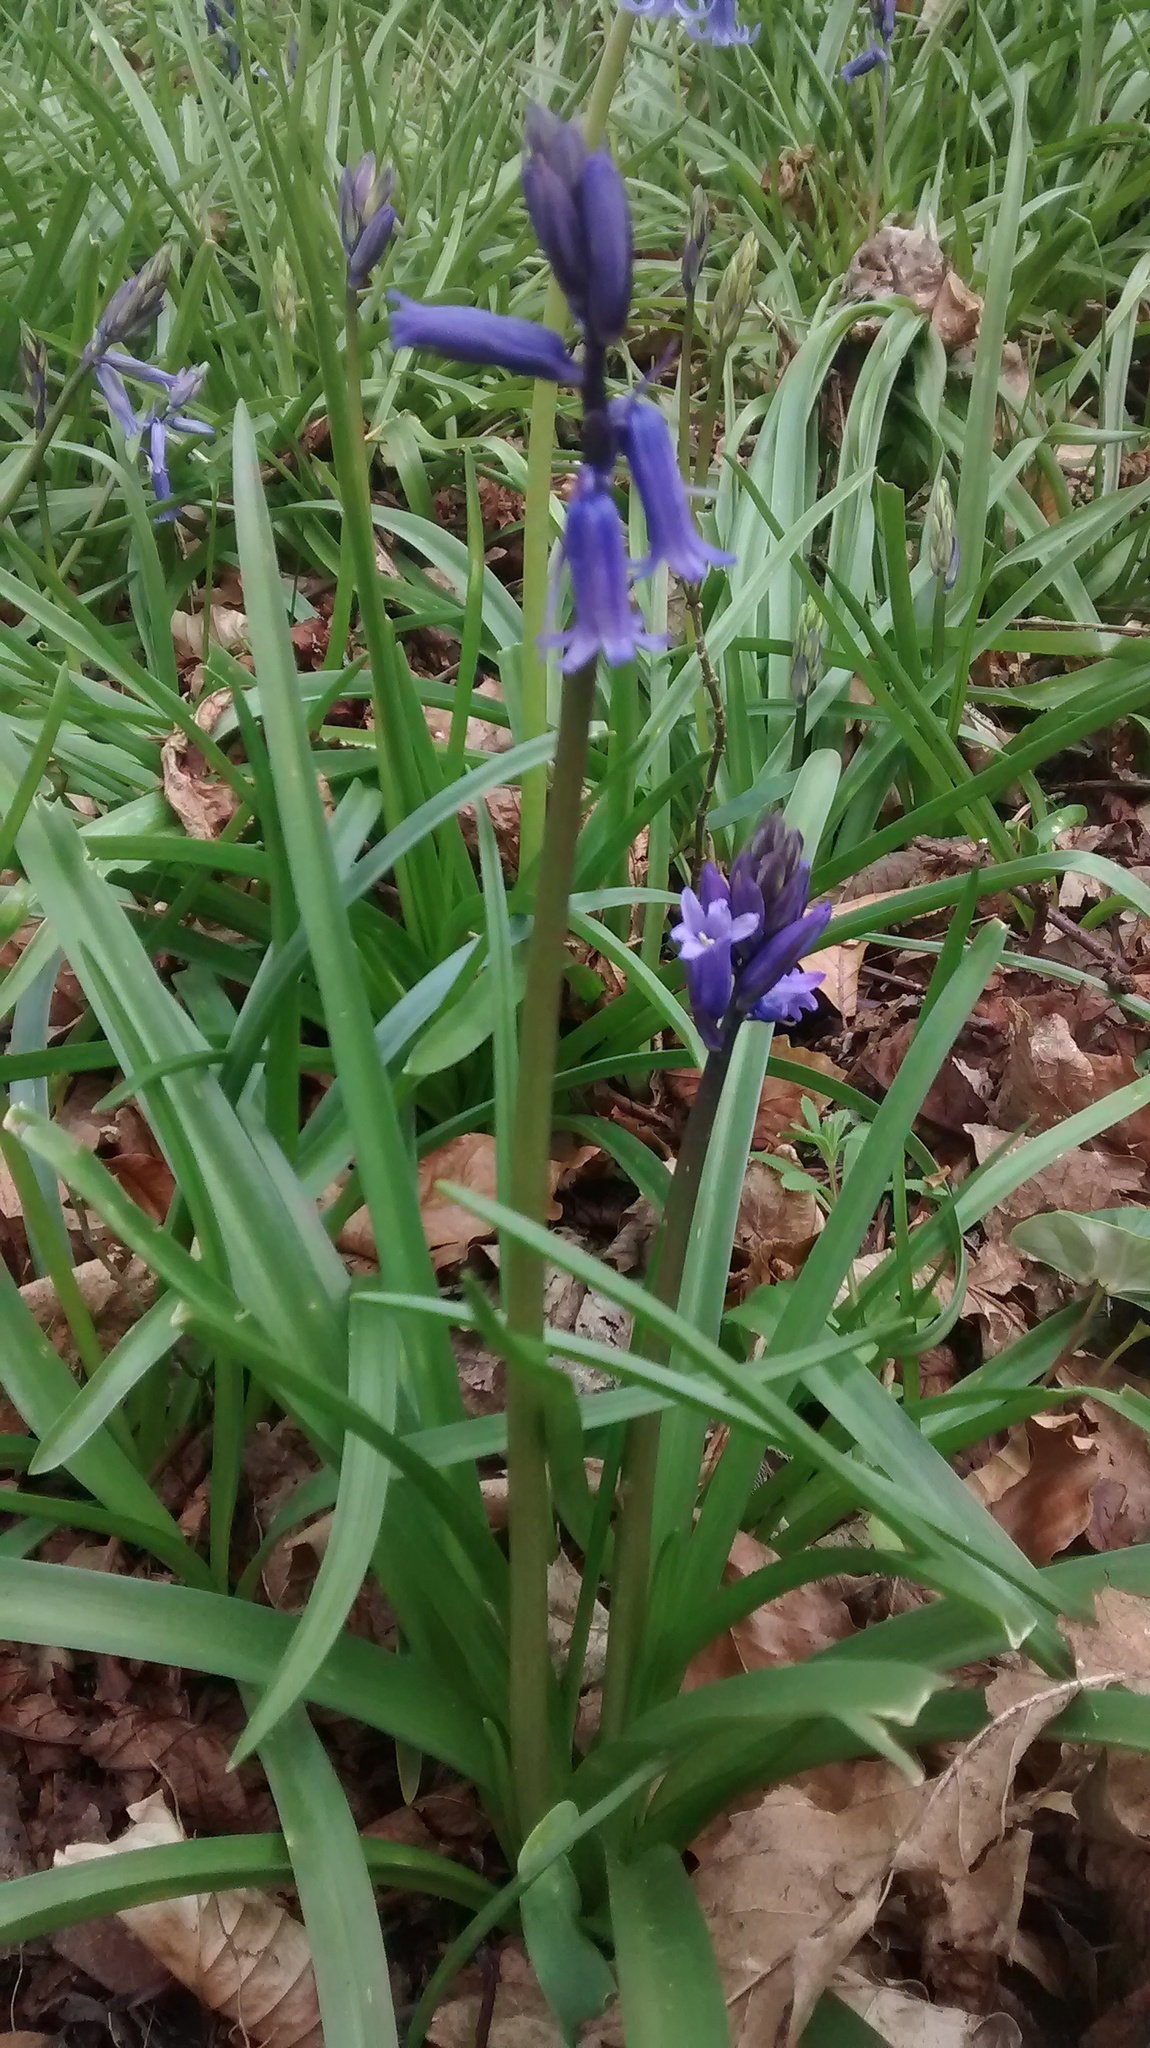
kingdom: Plantae
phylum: Tracheophyta
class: Liliopsida
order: Asparagales
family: Asparagaceae
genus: Hyacinthoides
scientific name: Hyacinthoides non-scripta
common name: Bluebell
